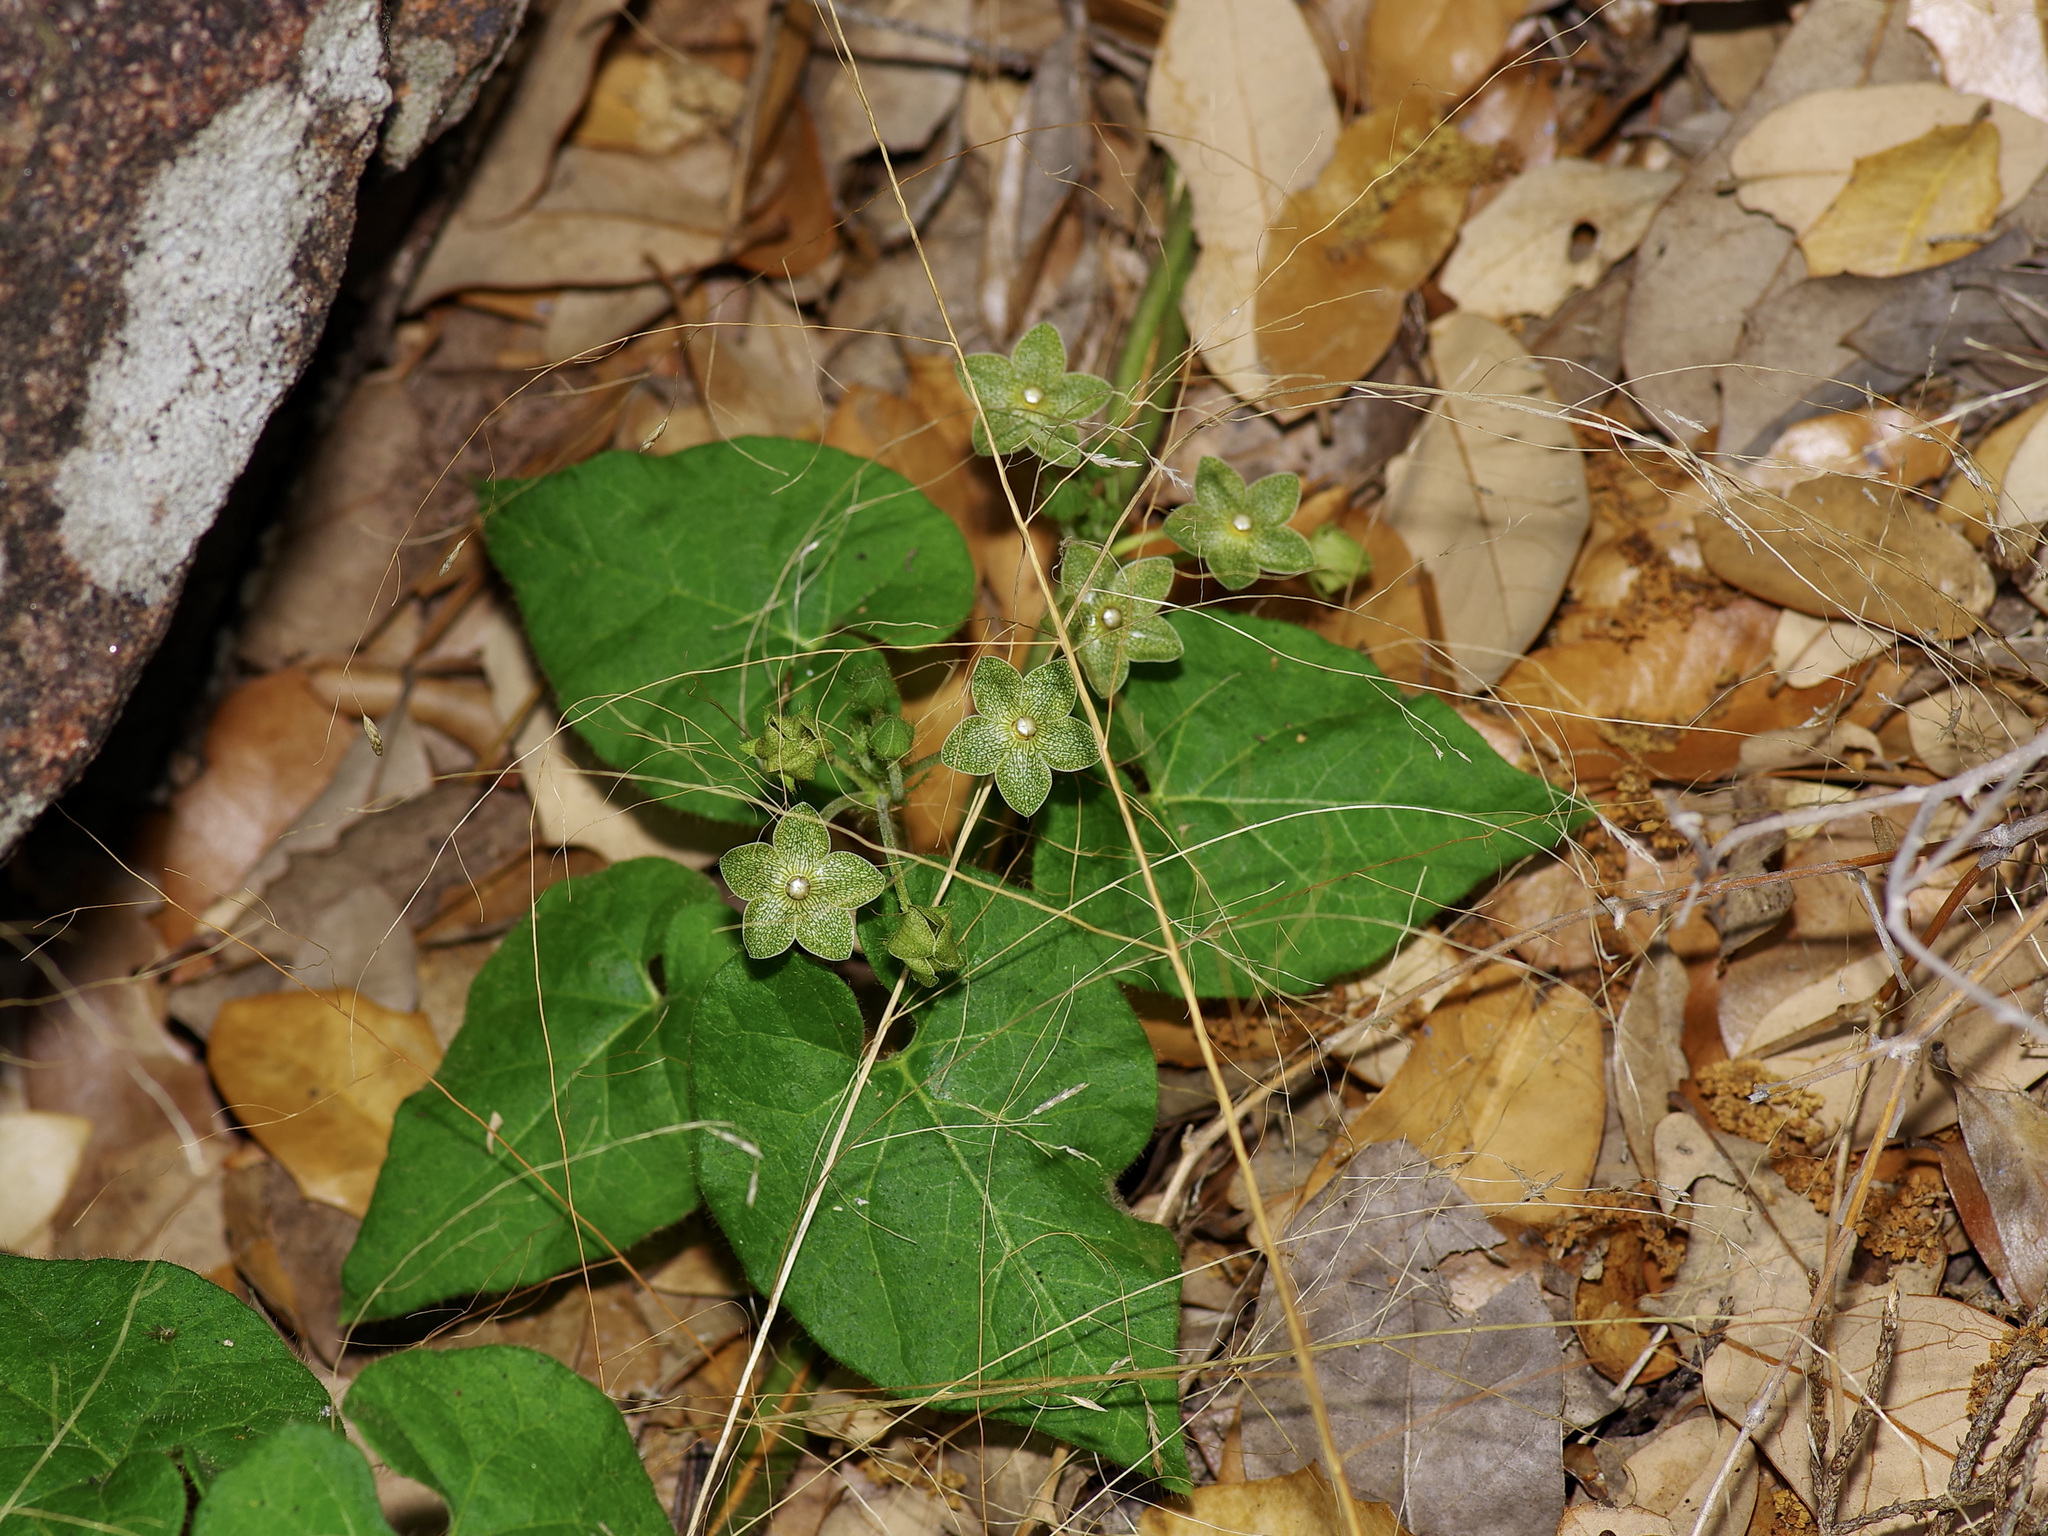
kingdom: Plantae
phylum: Tracheophyta
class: Magnoliopsida
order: Gentianales
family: Apocynaceae
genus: Dictyanthus
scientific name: Dictyanthus reticulatus
